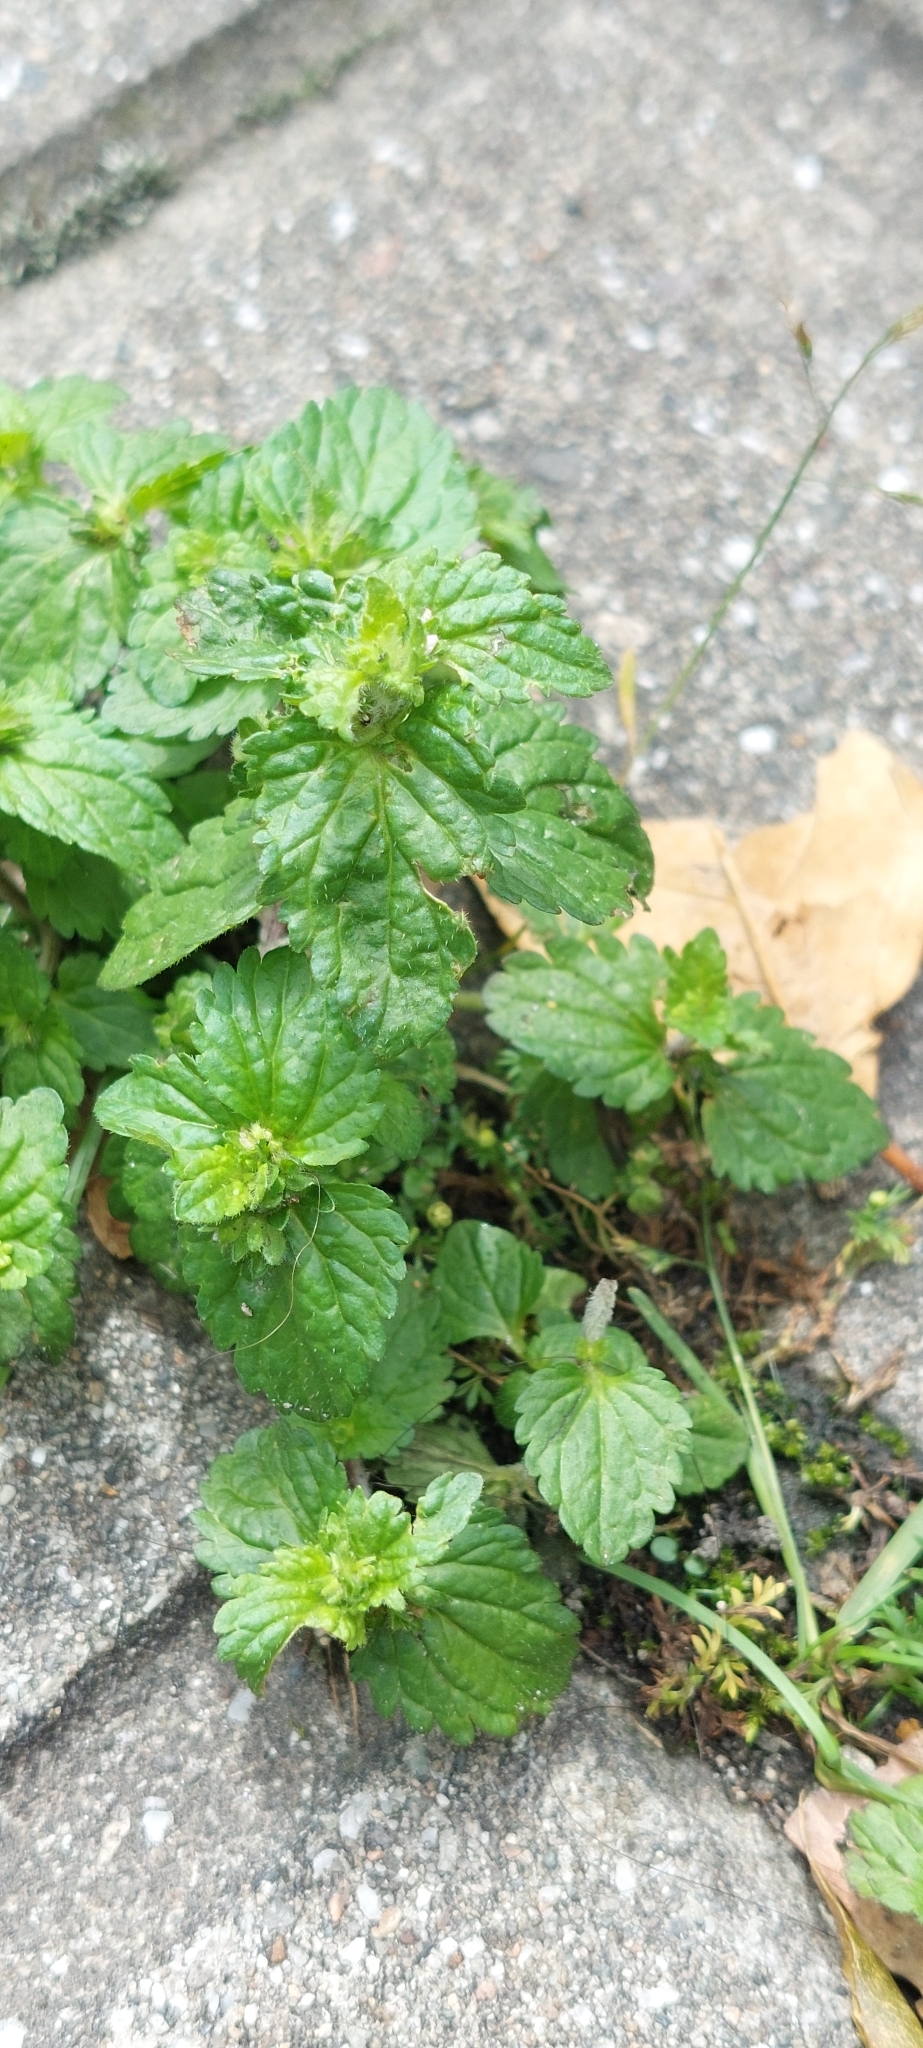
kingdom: Plantae
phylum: Tracheophyta
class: Magnoliopsida
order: Lamiales
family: Plantaginaceae
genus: Veronica
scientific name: Veronica javanica
